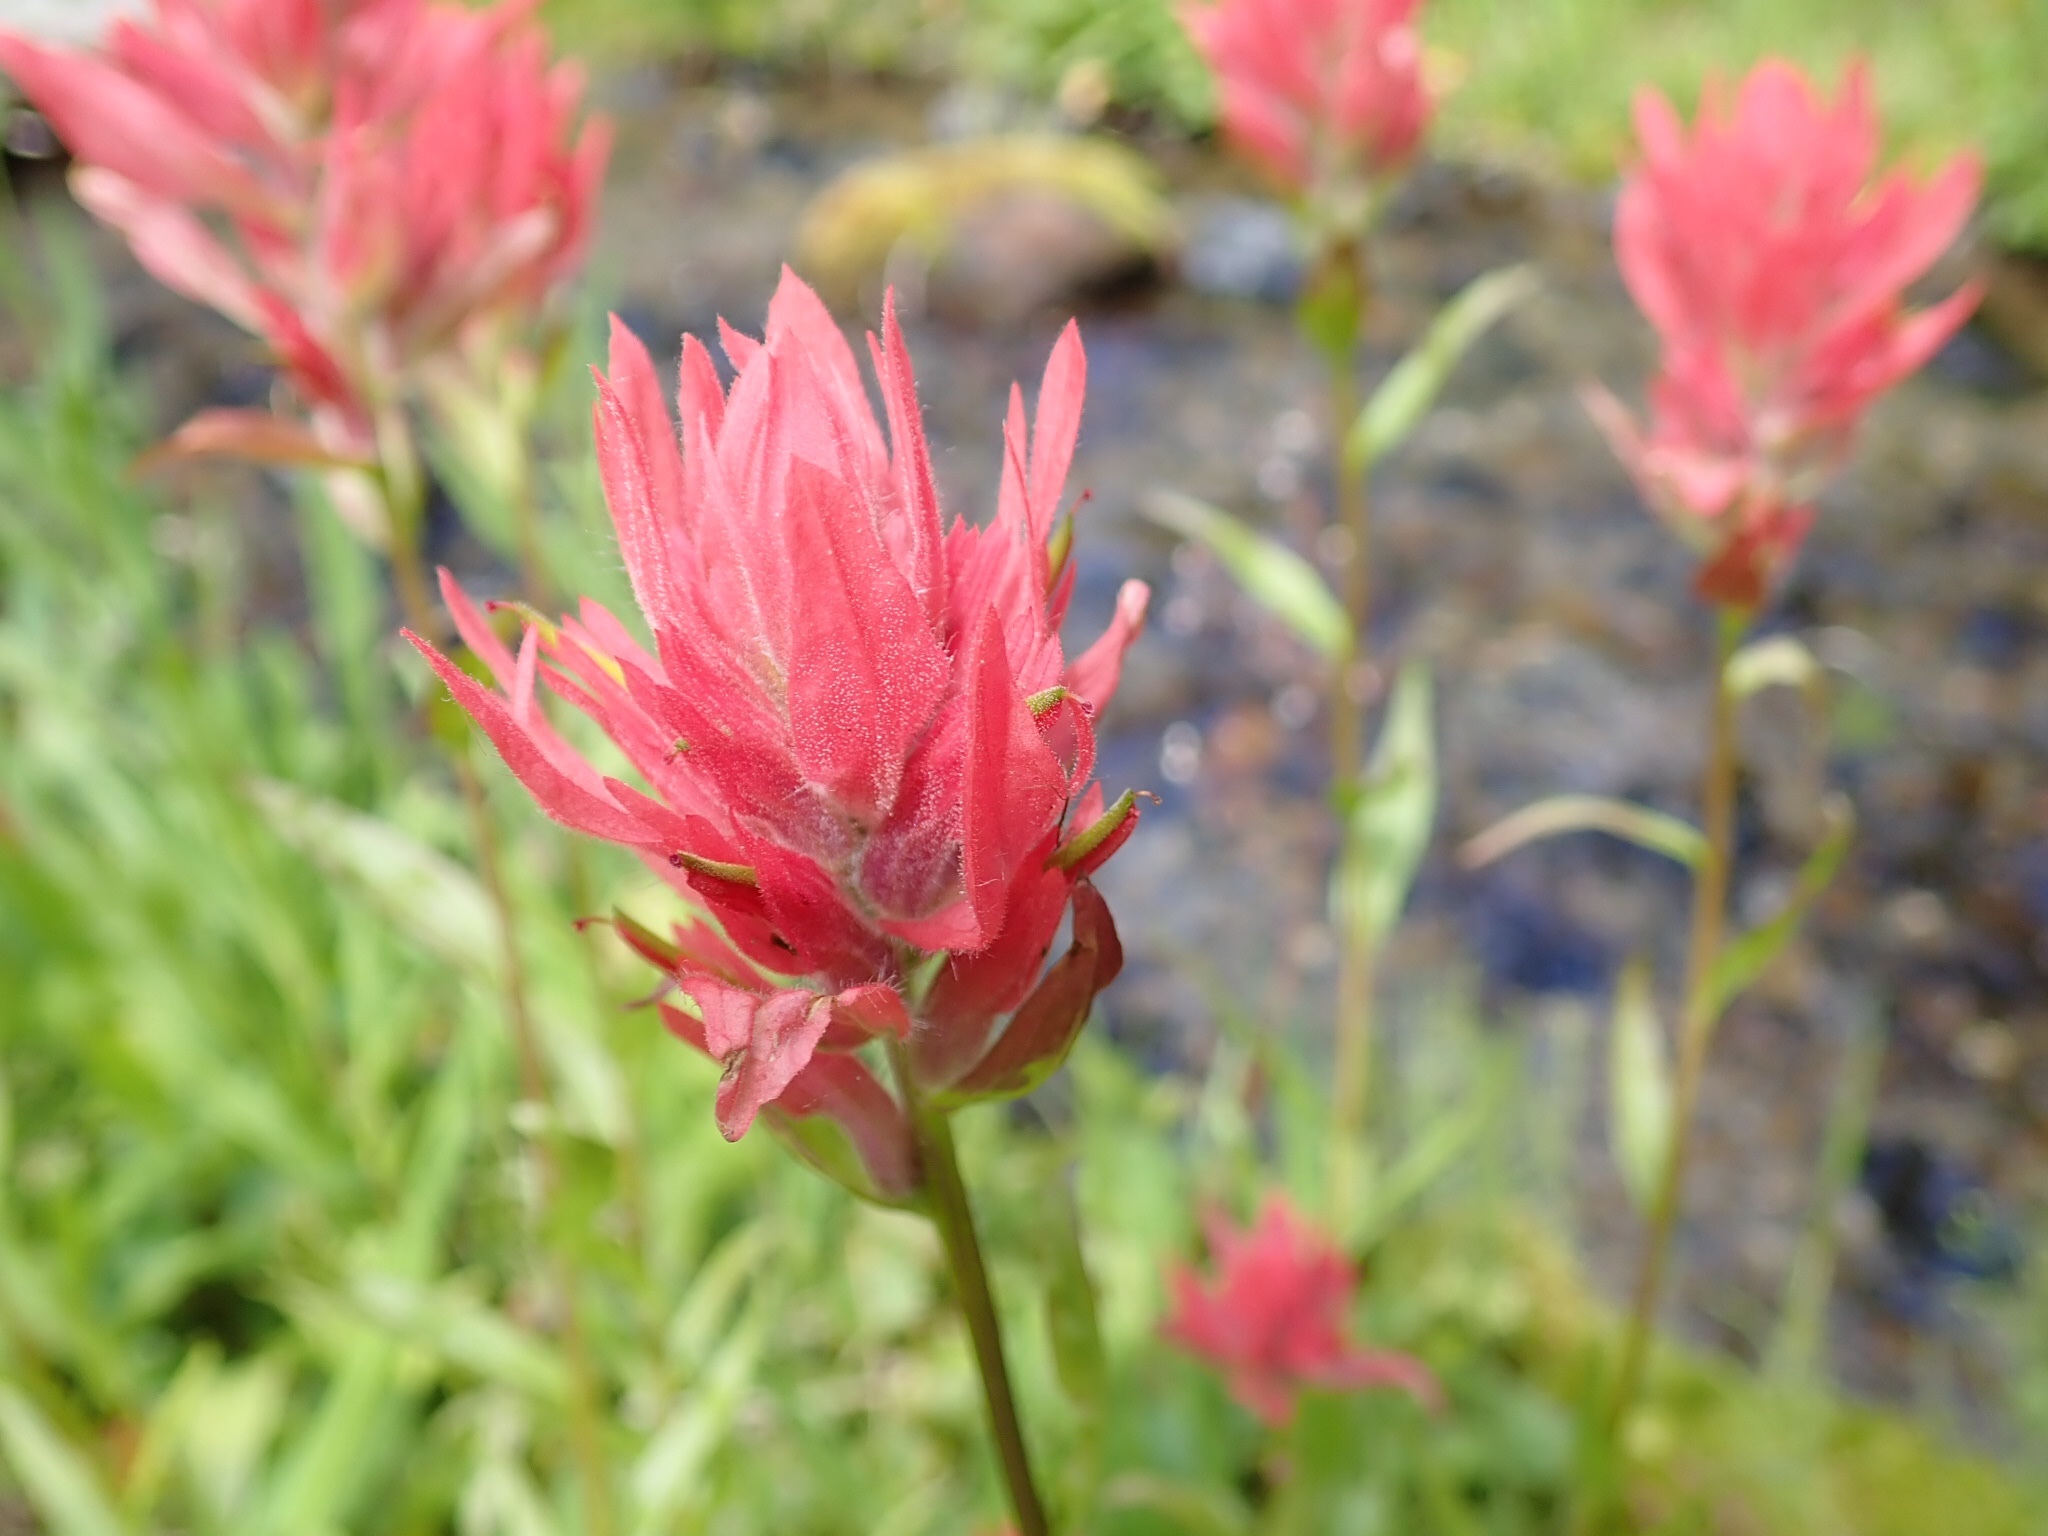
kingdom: Plantae
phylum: Tracheophyta
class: Magnoliopsida
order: Lamiales
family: Orobanchaceae
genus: Castilleja
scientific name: Castilleja miniata
